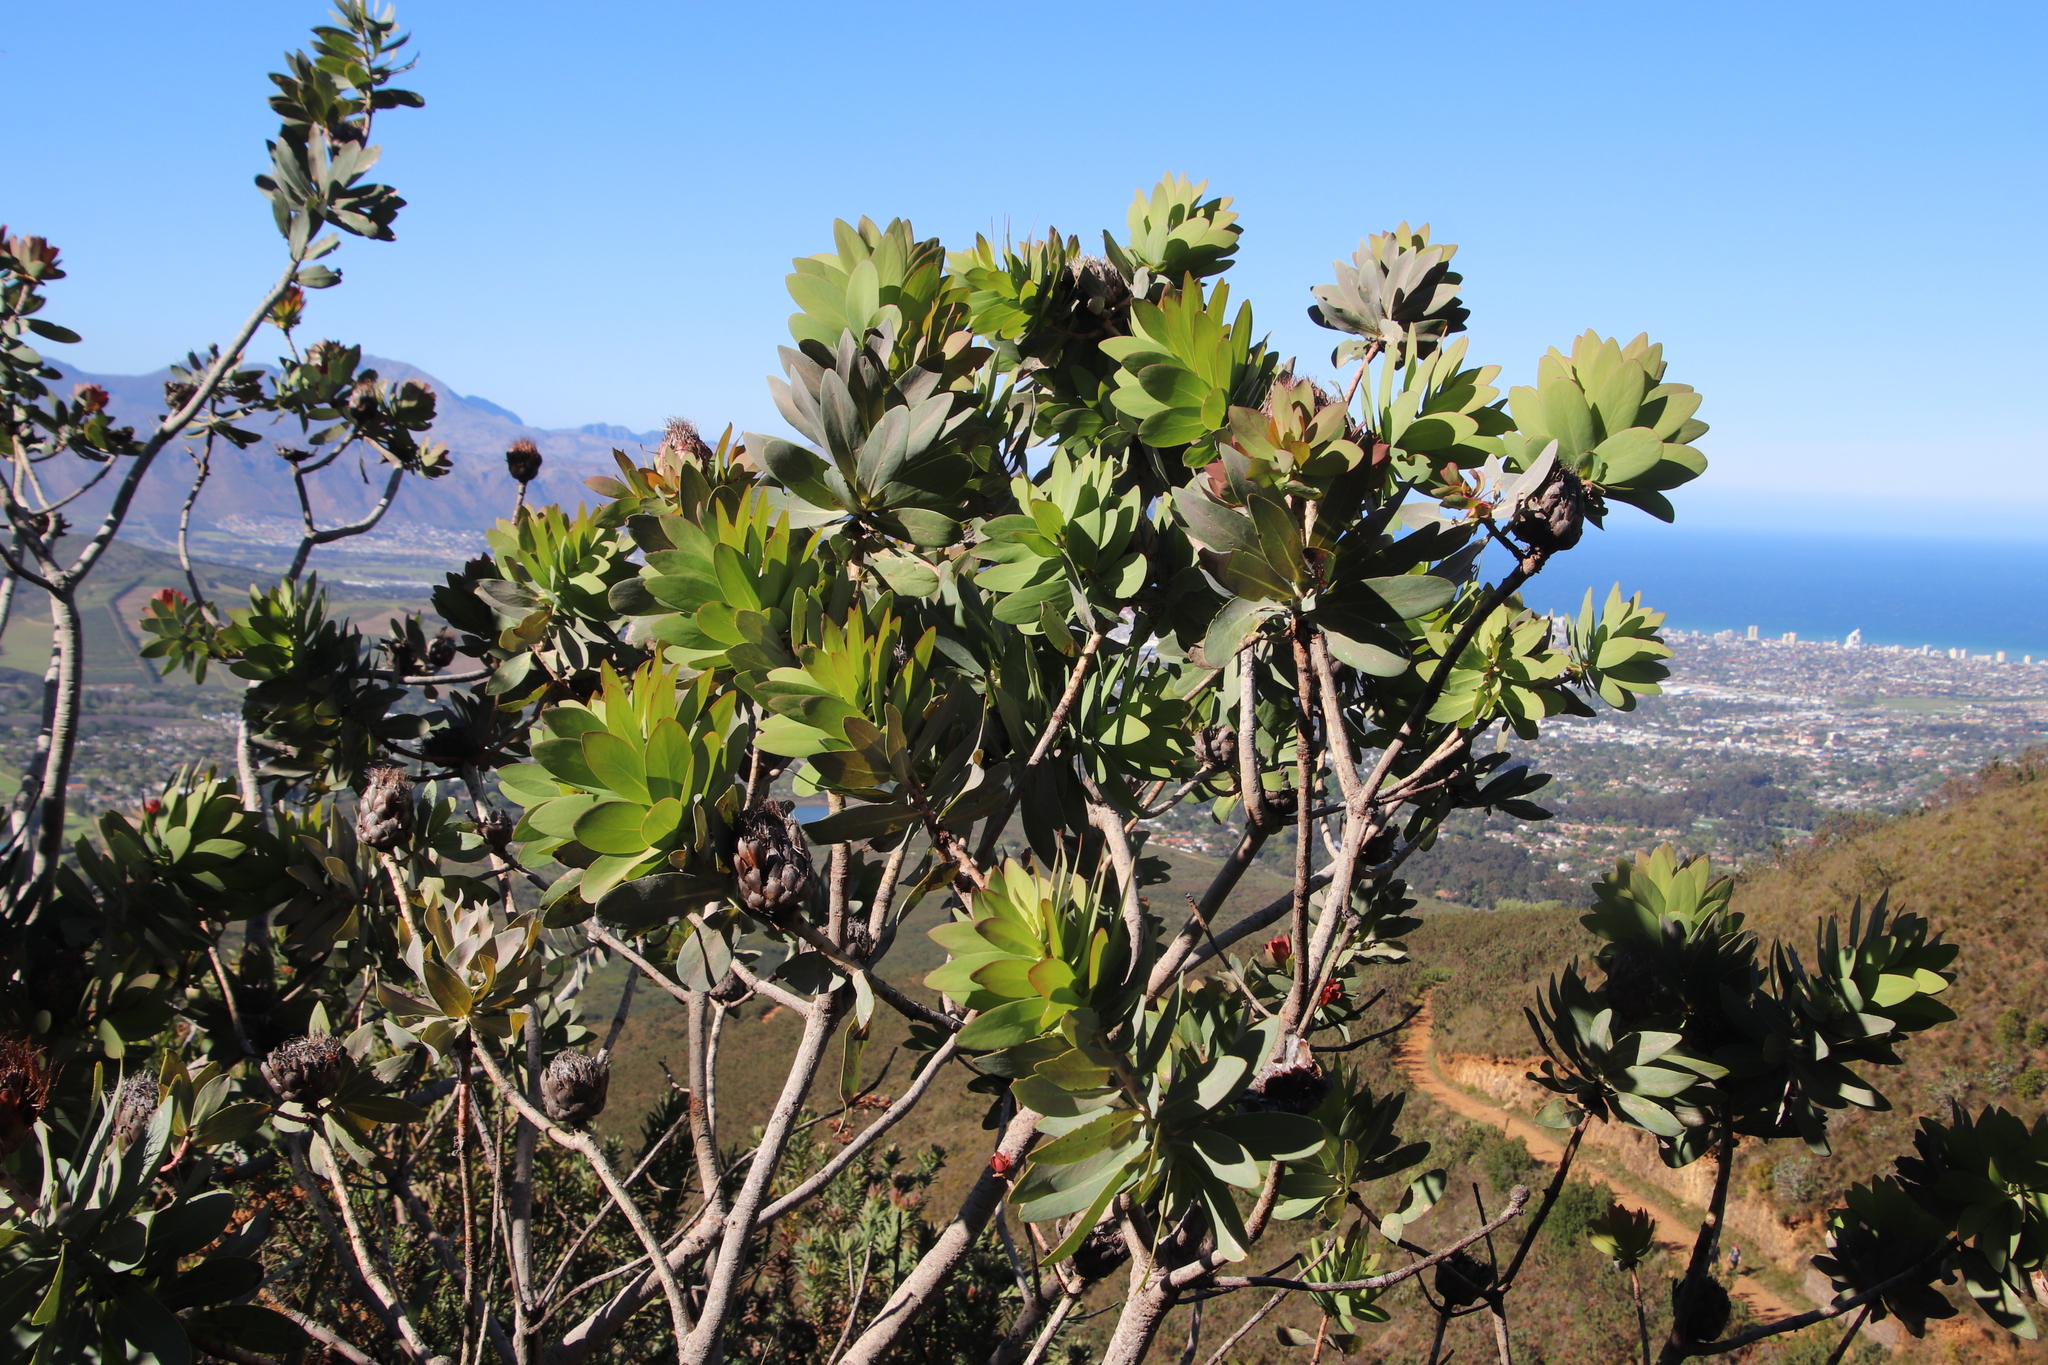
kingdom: Plantae
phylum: Tracheophyta
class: Magnoliopsida
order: Proteales
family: Proteaceae
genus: Protea
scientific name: Protea nitida
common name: Tree protea
